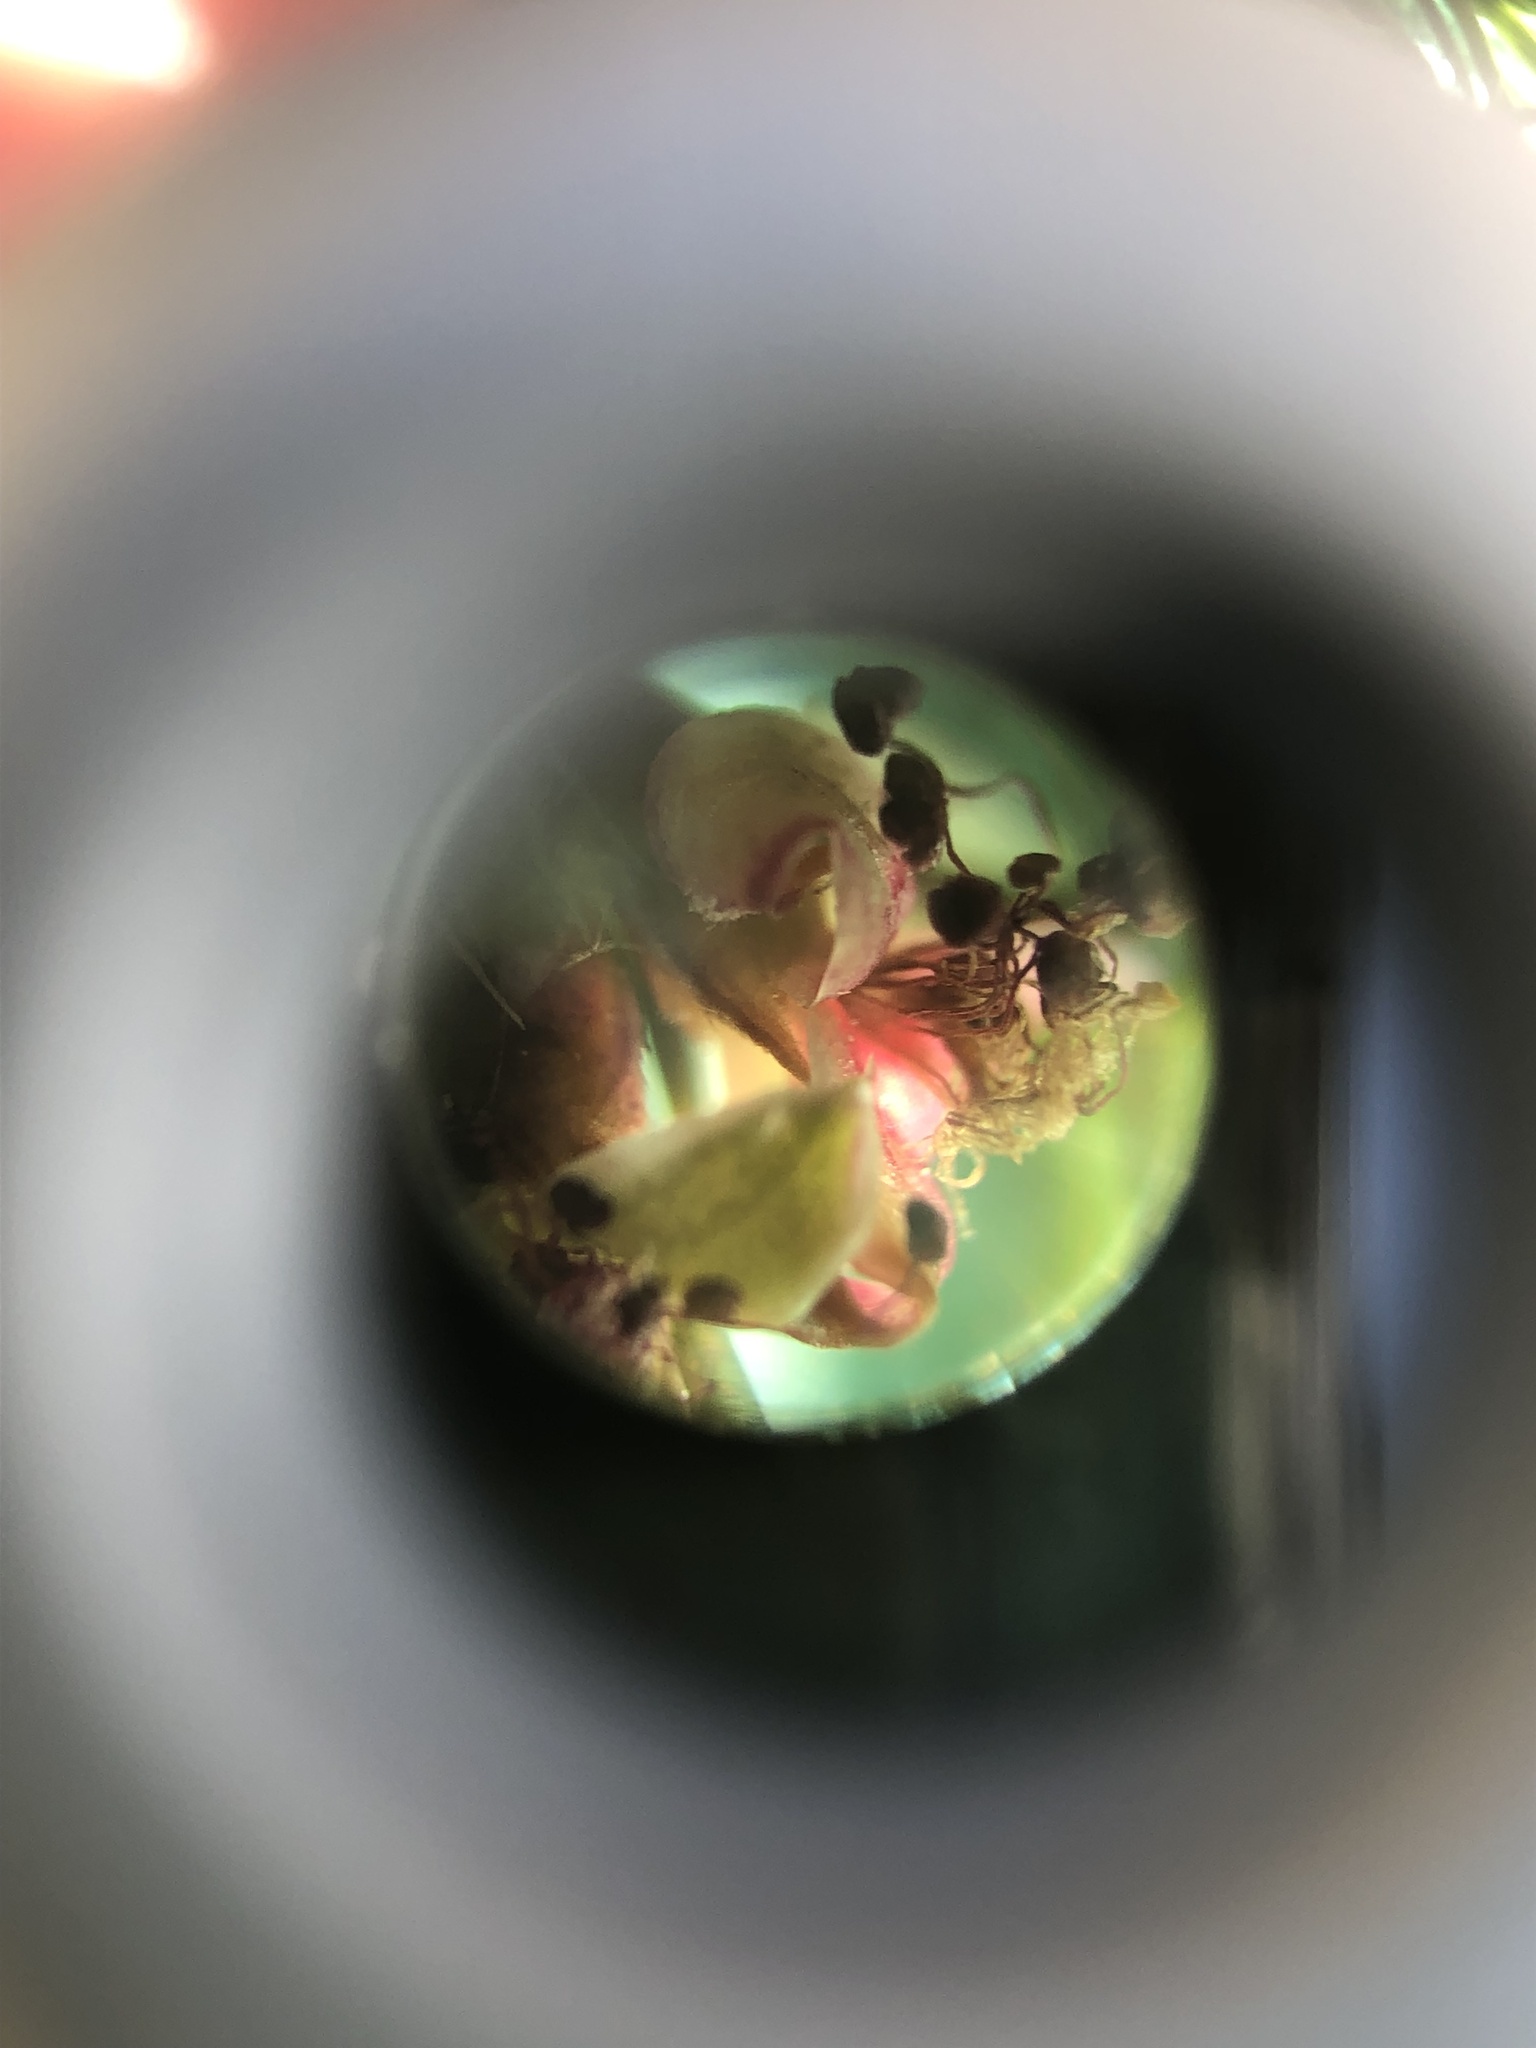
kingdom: Plantae
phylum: Tracheophyta
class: Magnoliopsida
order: Rosales
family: Rosaceae
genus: Cliffortia
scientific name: Cliffortia atrata
